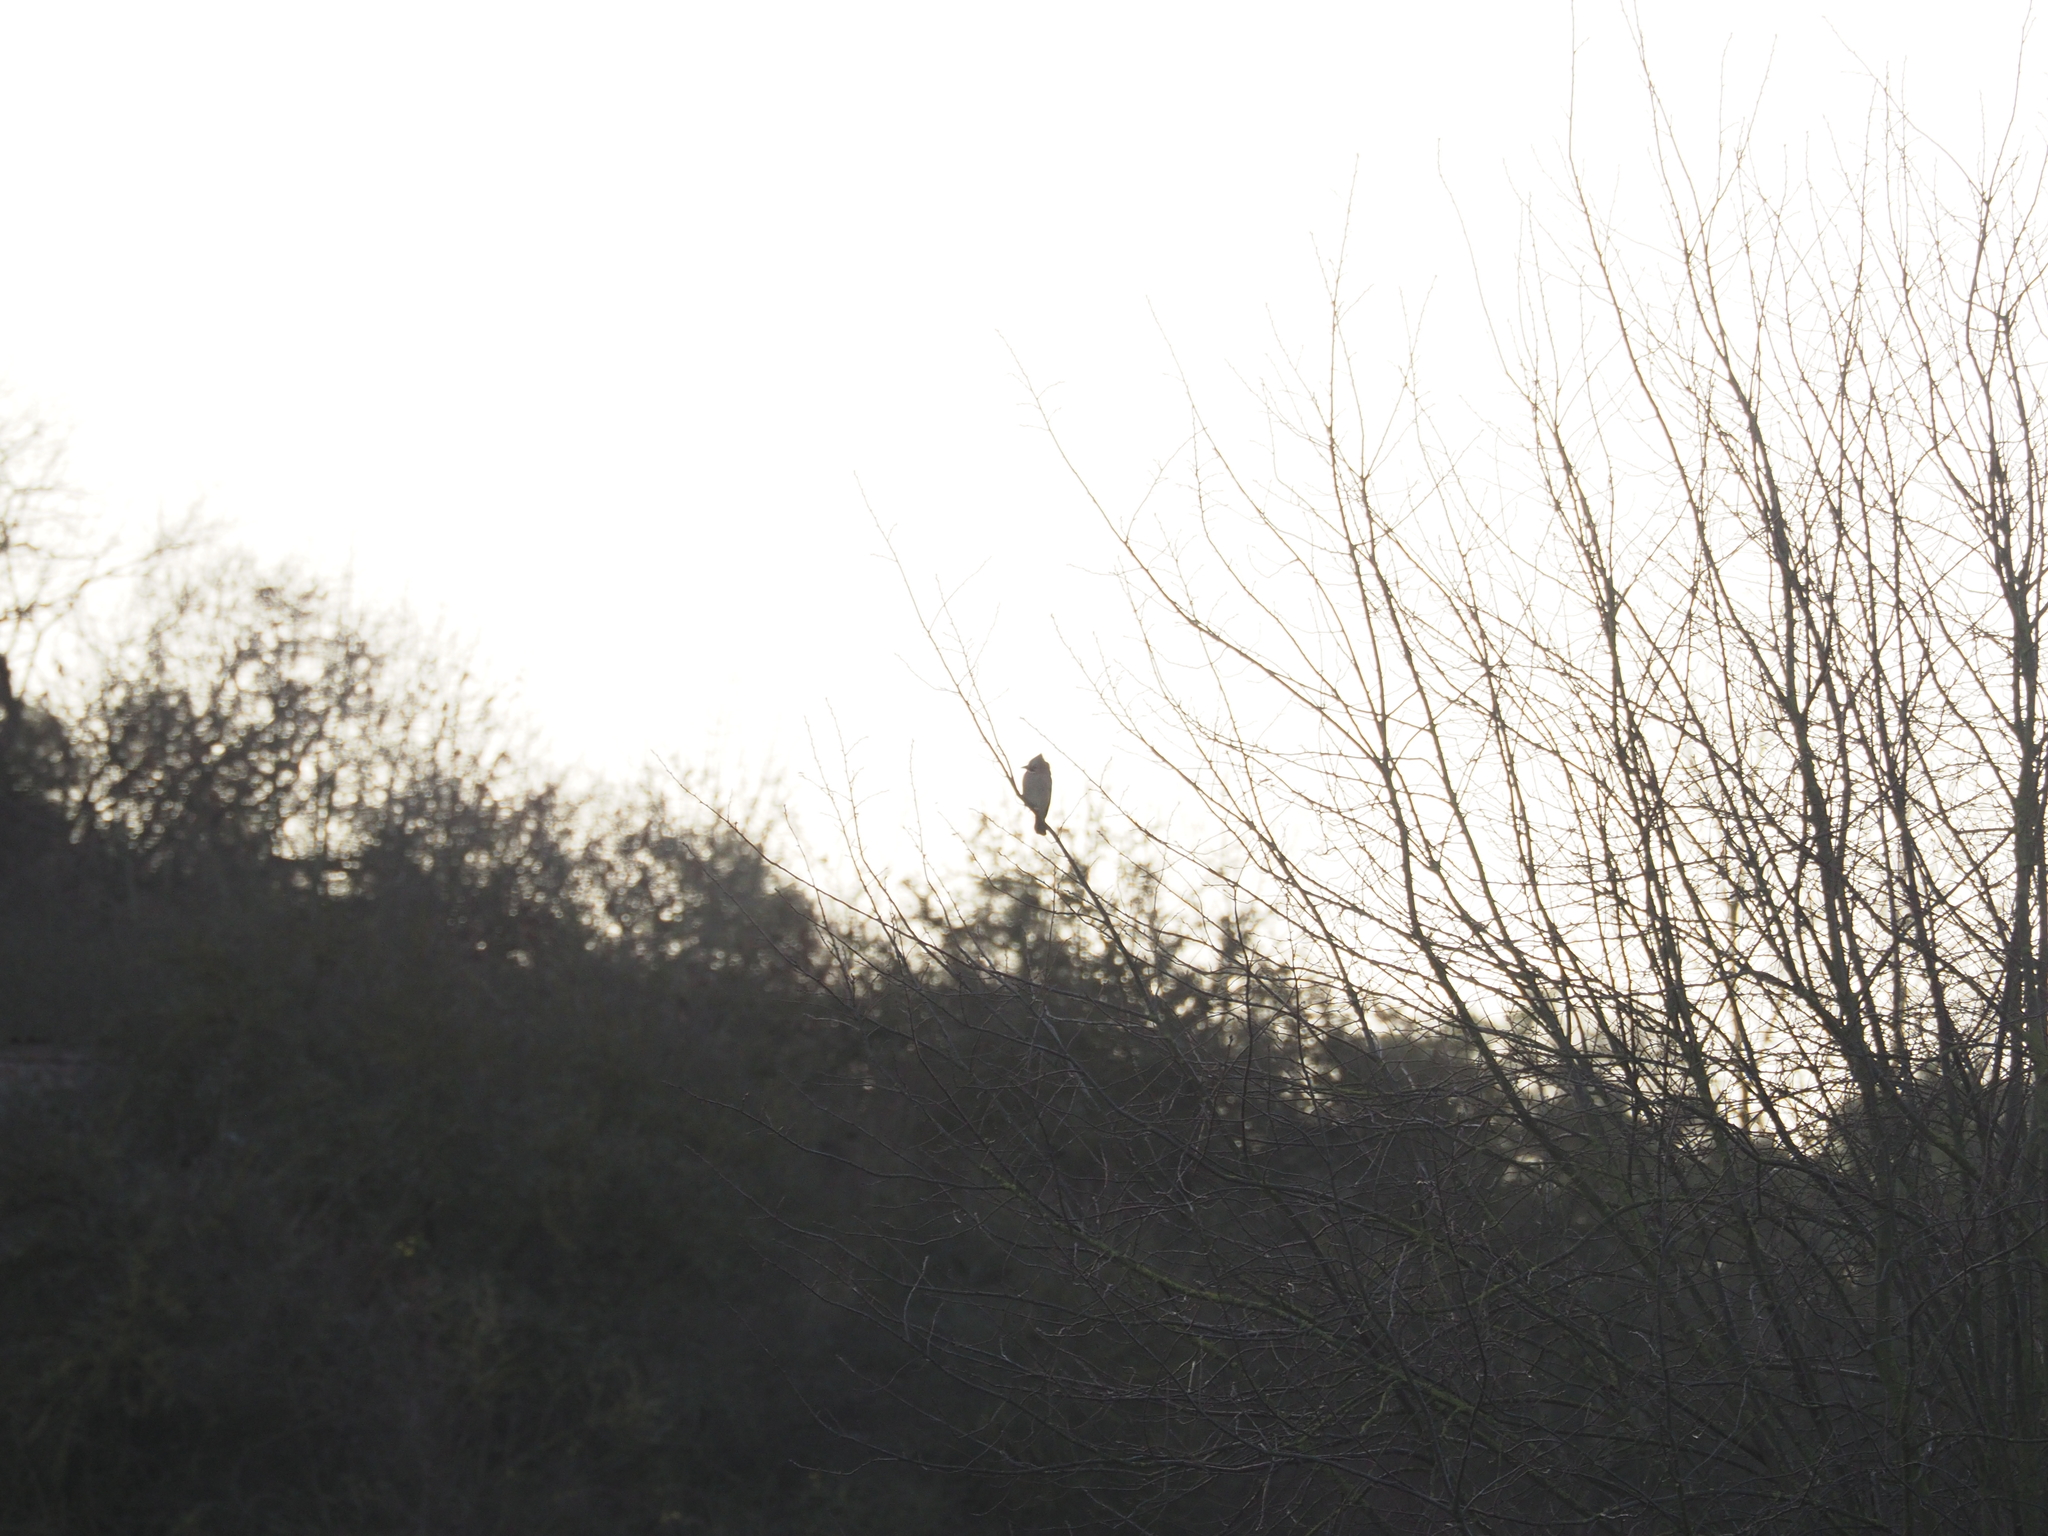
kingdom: Animalia
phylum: Chordata
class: Aves
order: Passeriformes
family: Corvidae
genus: Garrulus
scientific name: Garrulus glandarius
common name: Eurasian jay
